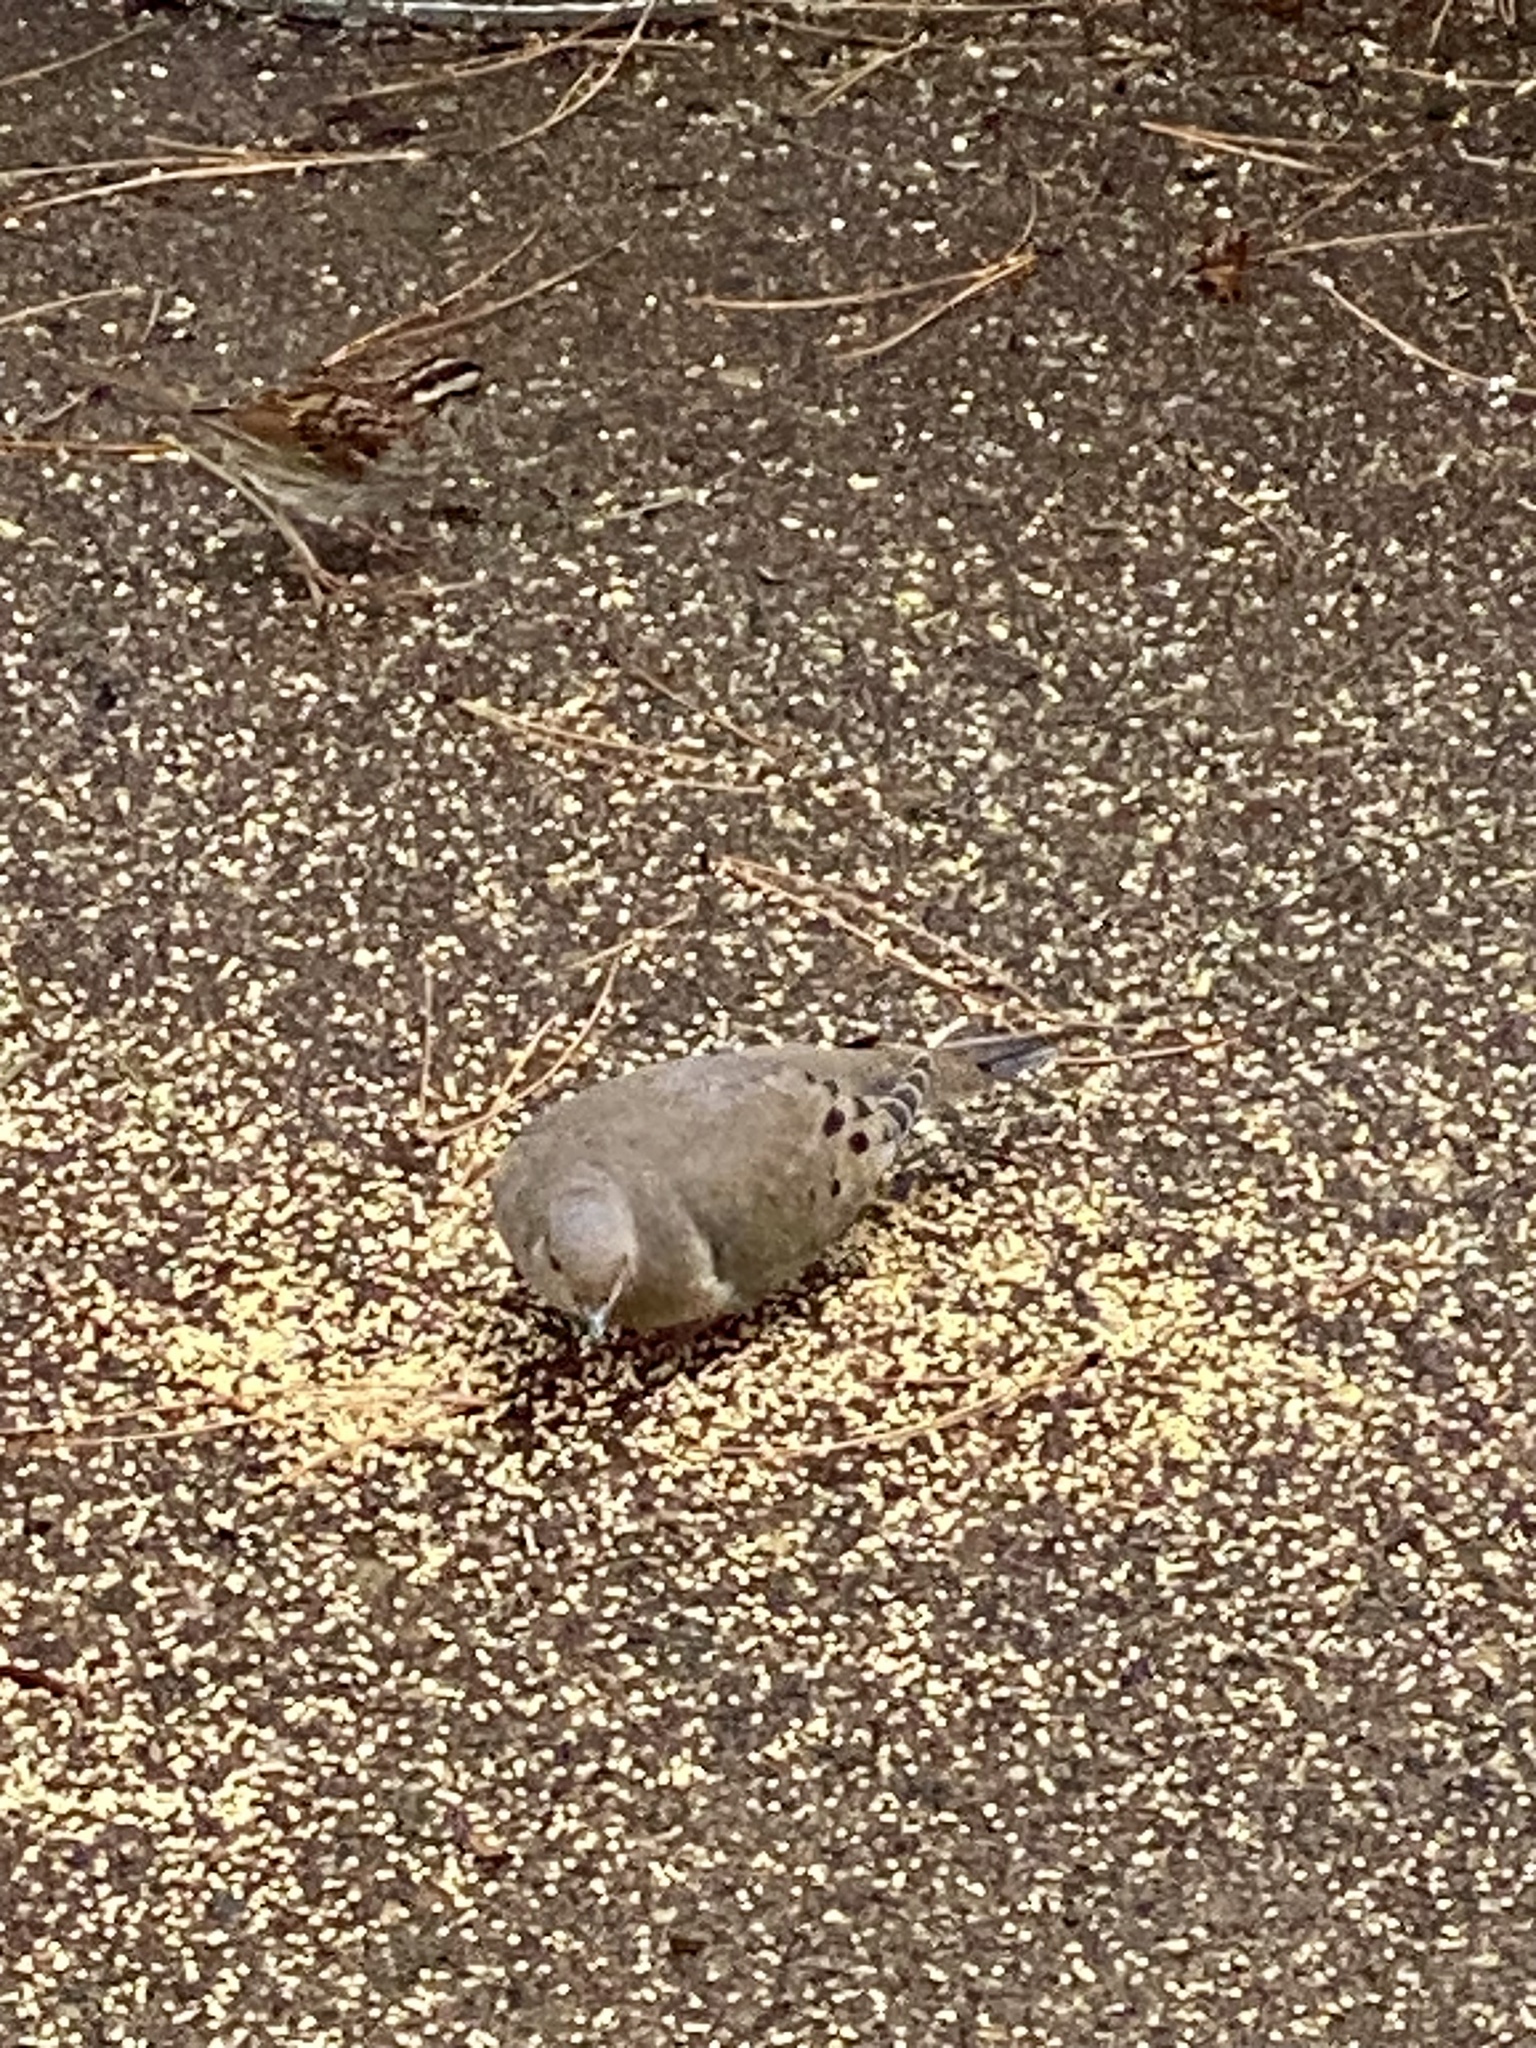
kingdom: Animalia
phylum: Chordata
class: Aves
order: Columbiformes
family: Columbidae
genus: Zenaida
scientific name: Zenaida macroura
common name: Mourning dove
